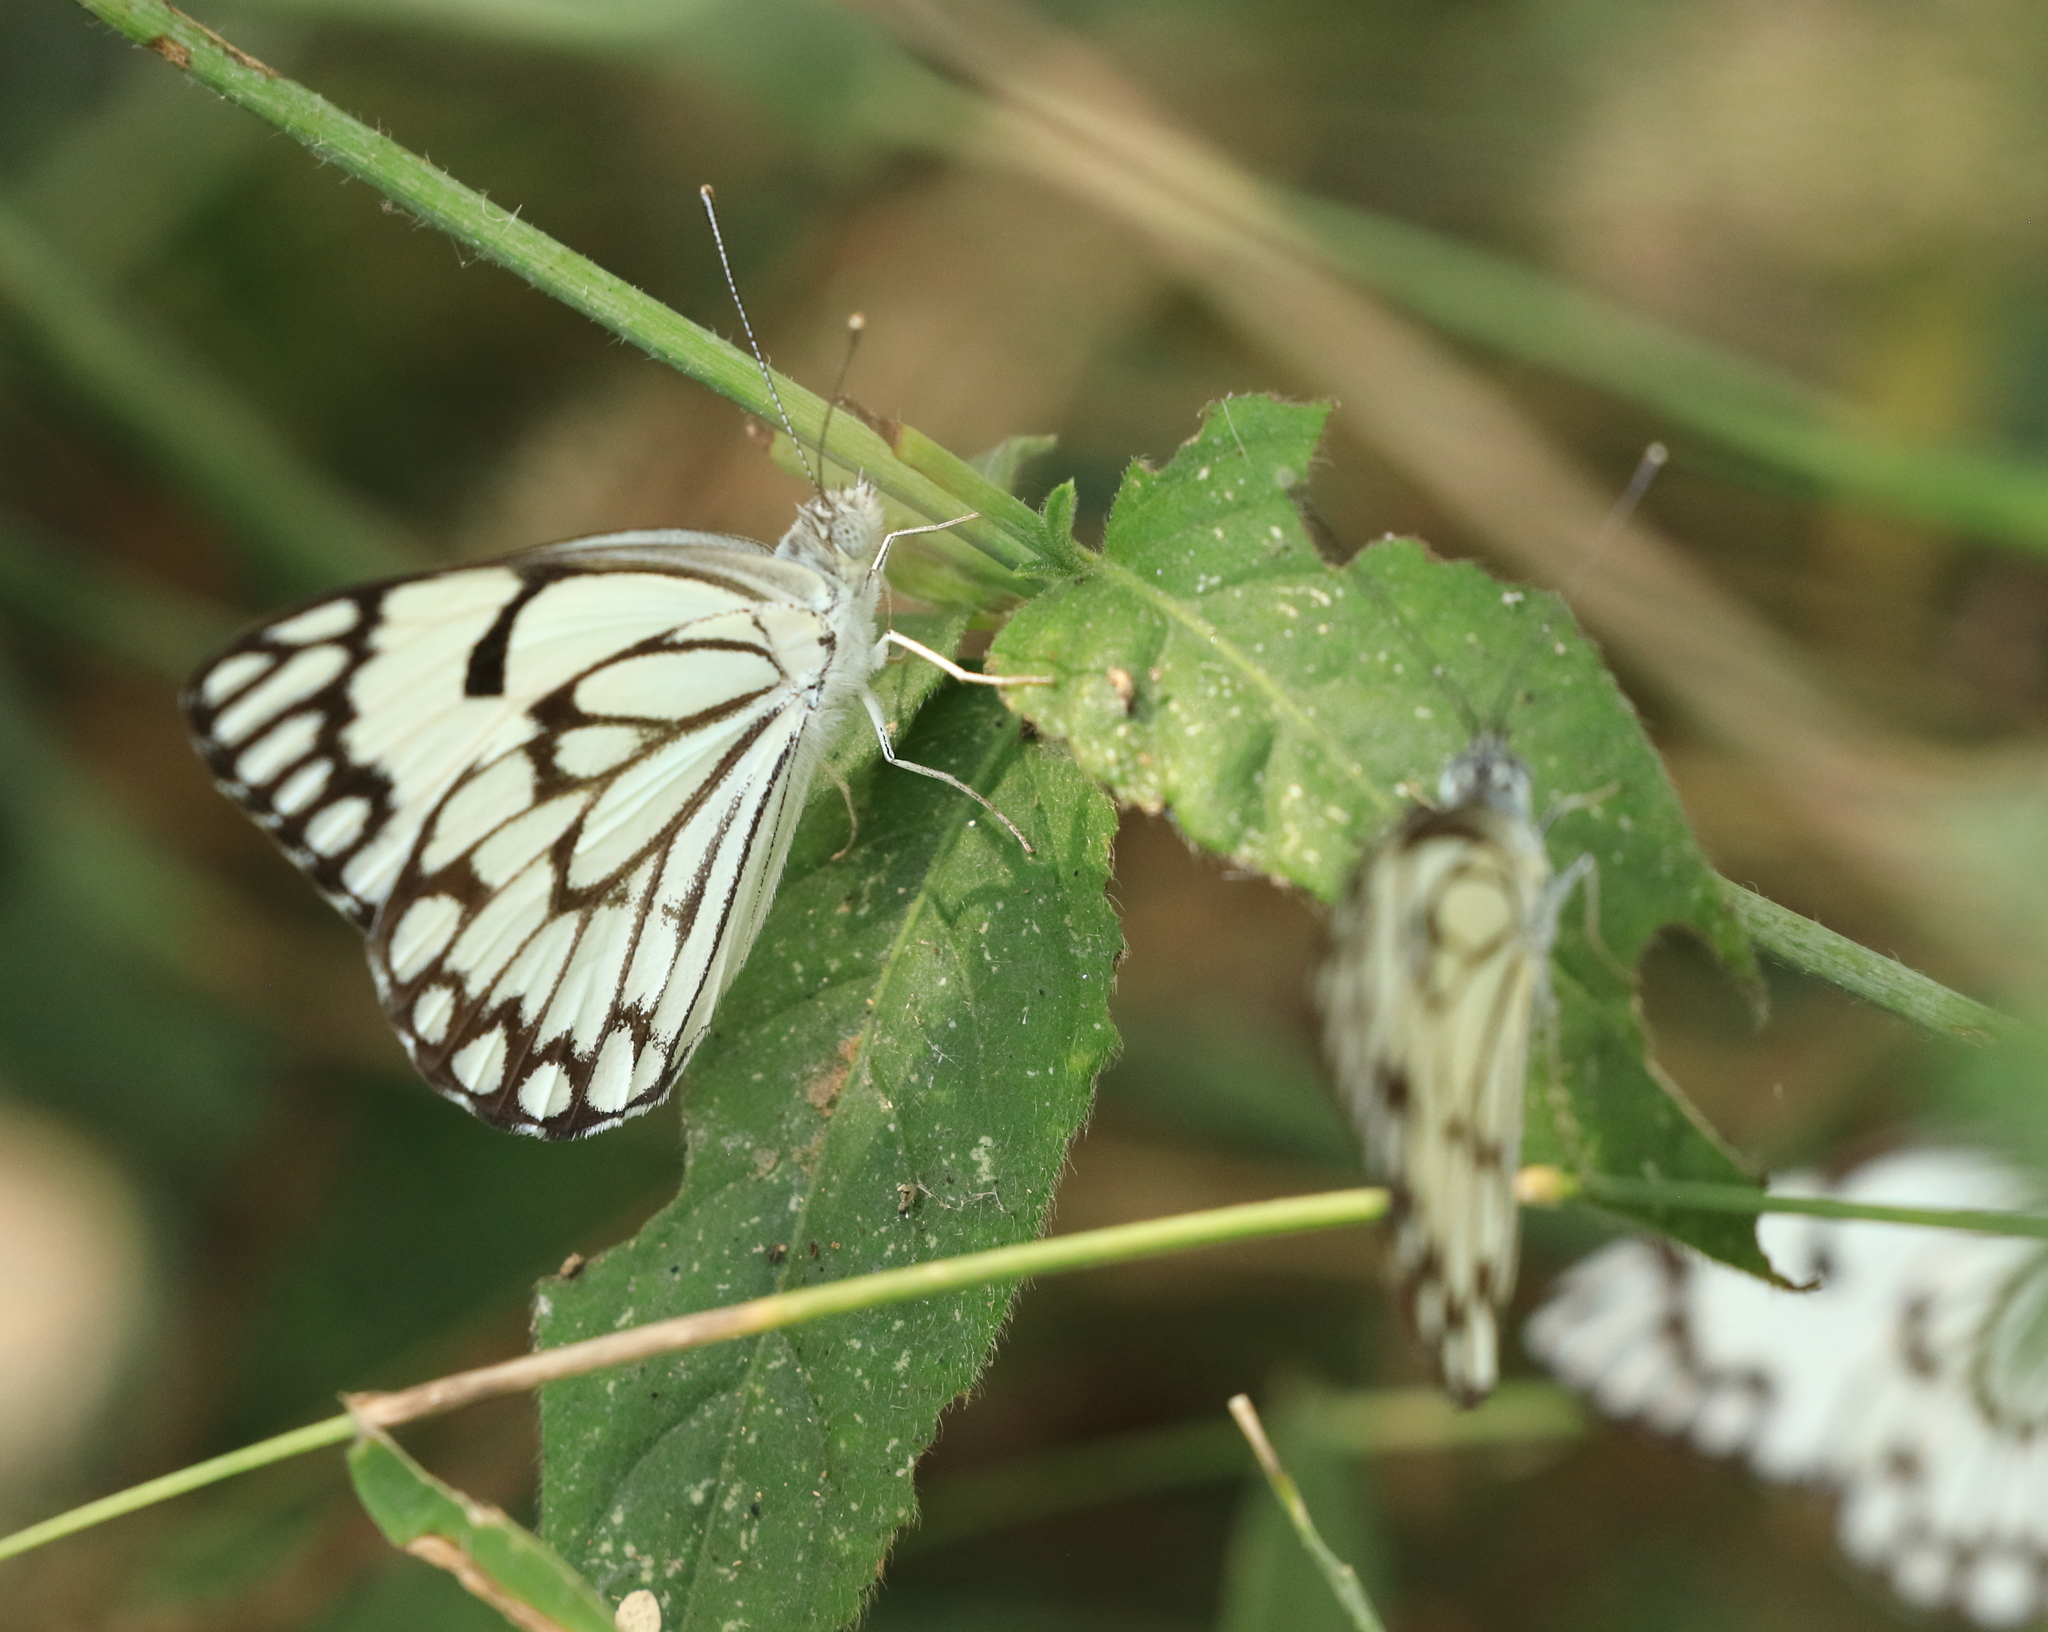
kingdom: Animalia
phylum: Arthropoda
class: Insecta
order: Lepidoptera
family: Pieridae
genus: Belenois
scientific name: Belenois aurota
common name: Brown-veined white
